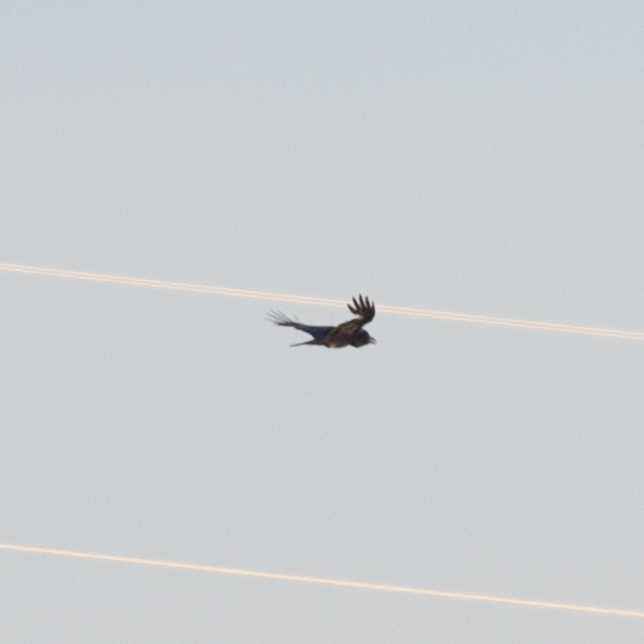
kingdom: Animalia
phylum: Chordata
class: Aves
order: Passeriformes
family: Corvidae
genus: Corvus
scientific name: Corvus corax
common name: Common raven
